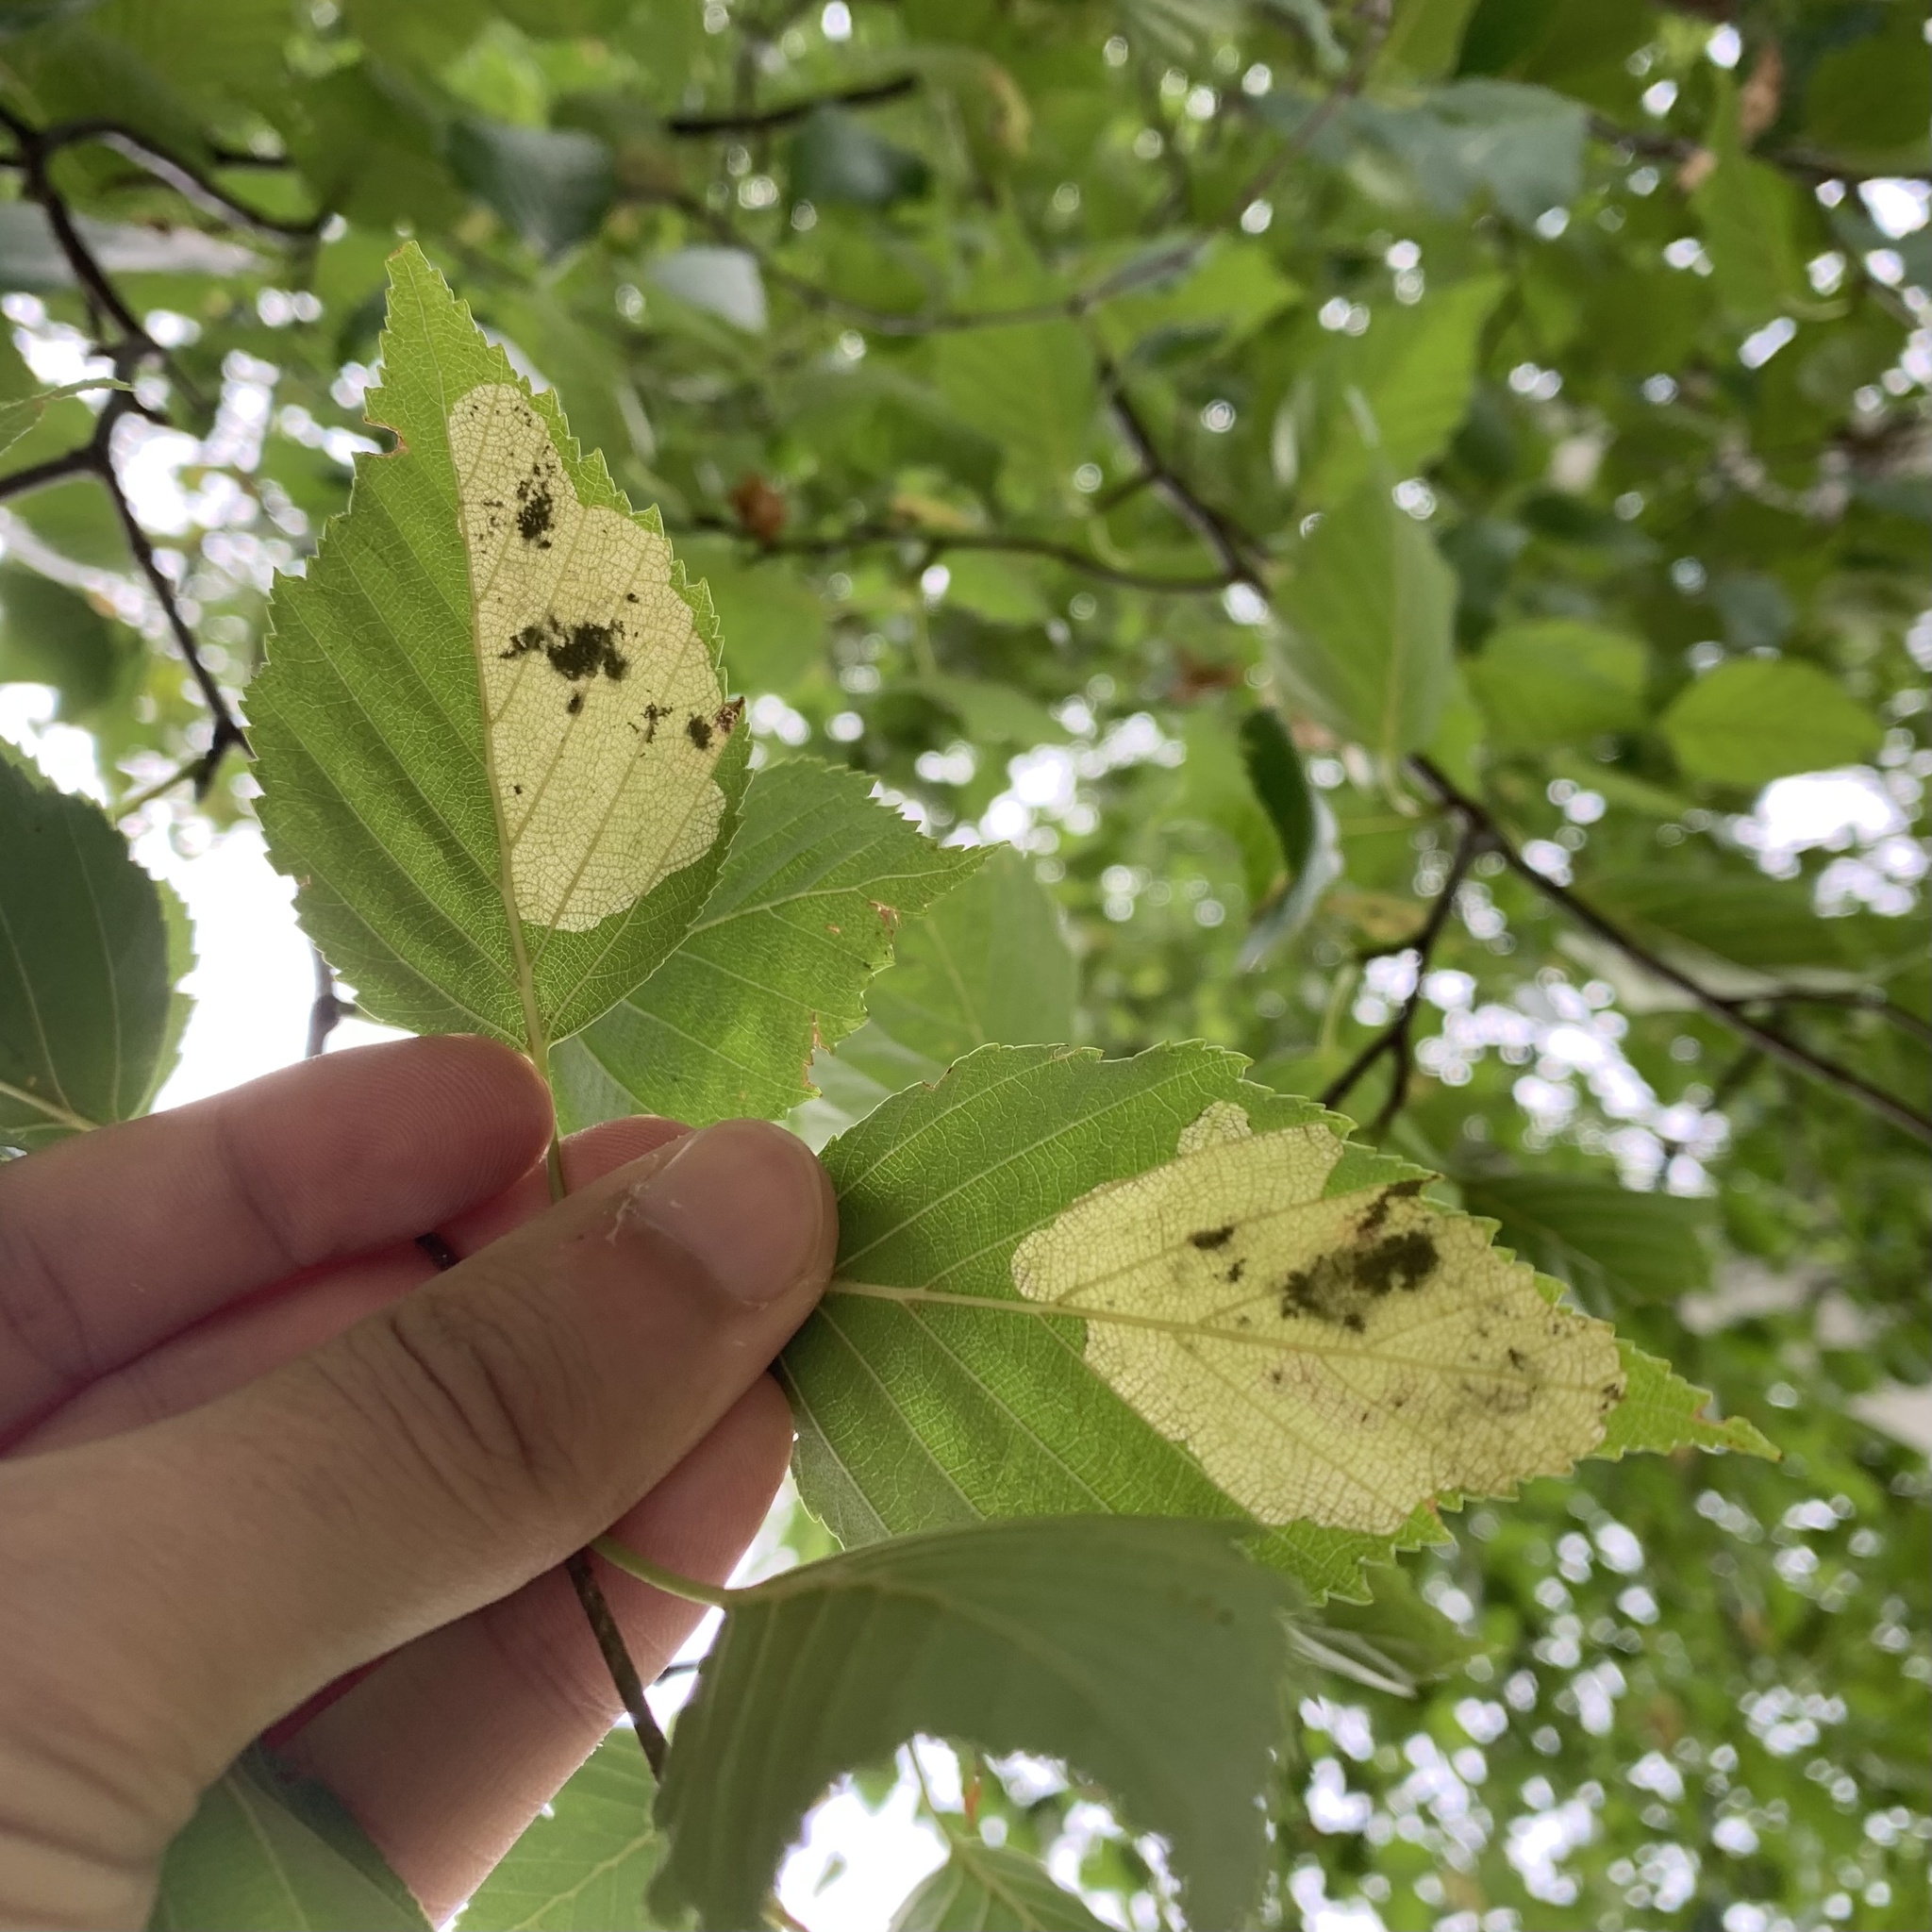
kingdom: Animalia
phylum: Arthropoda
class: Insecta
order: Hymenoptera
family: Tenthredinidae
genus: Fenusella
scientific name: Fenusella nana
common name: Early birch leaf edgeminer
